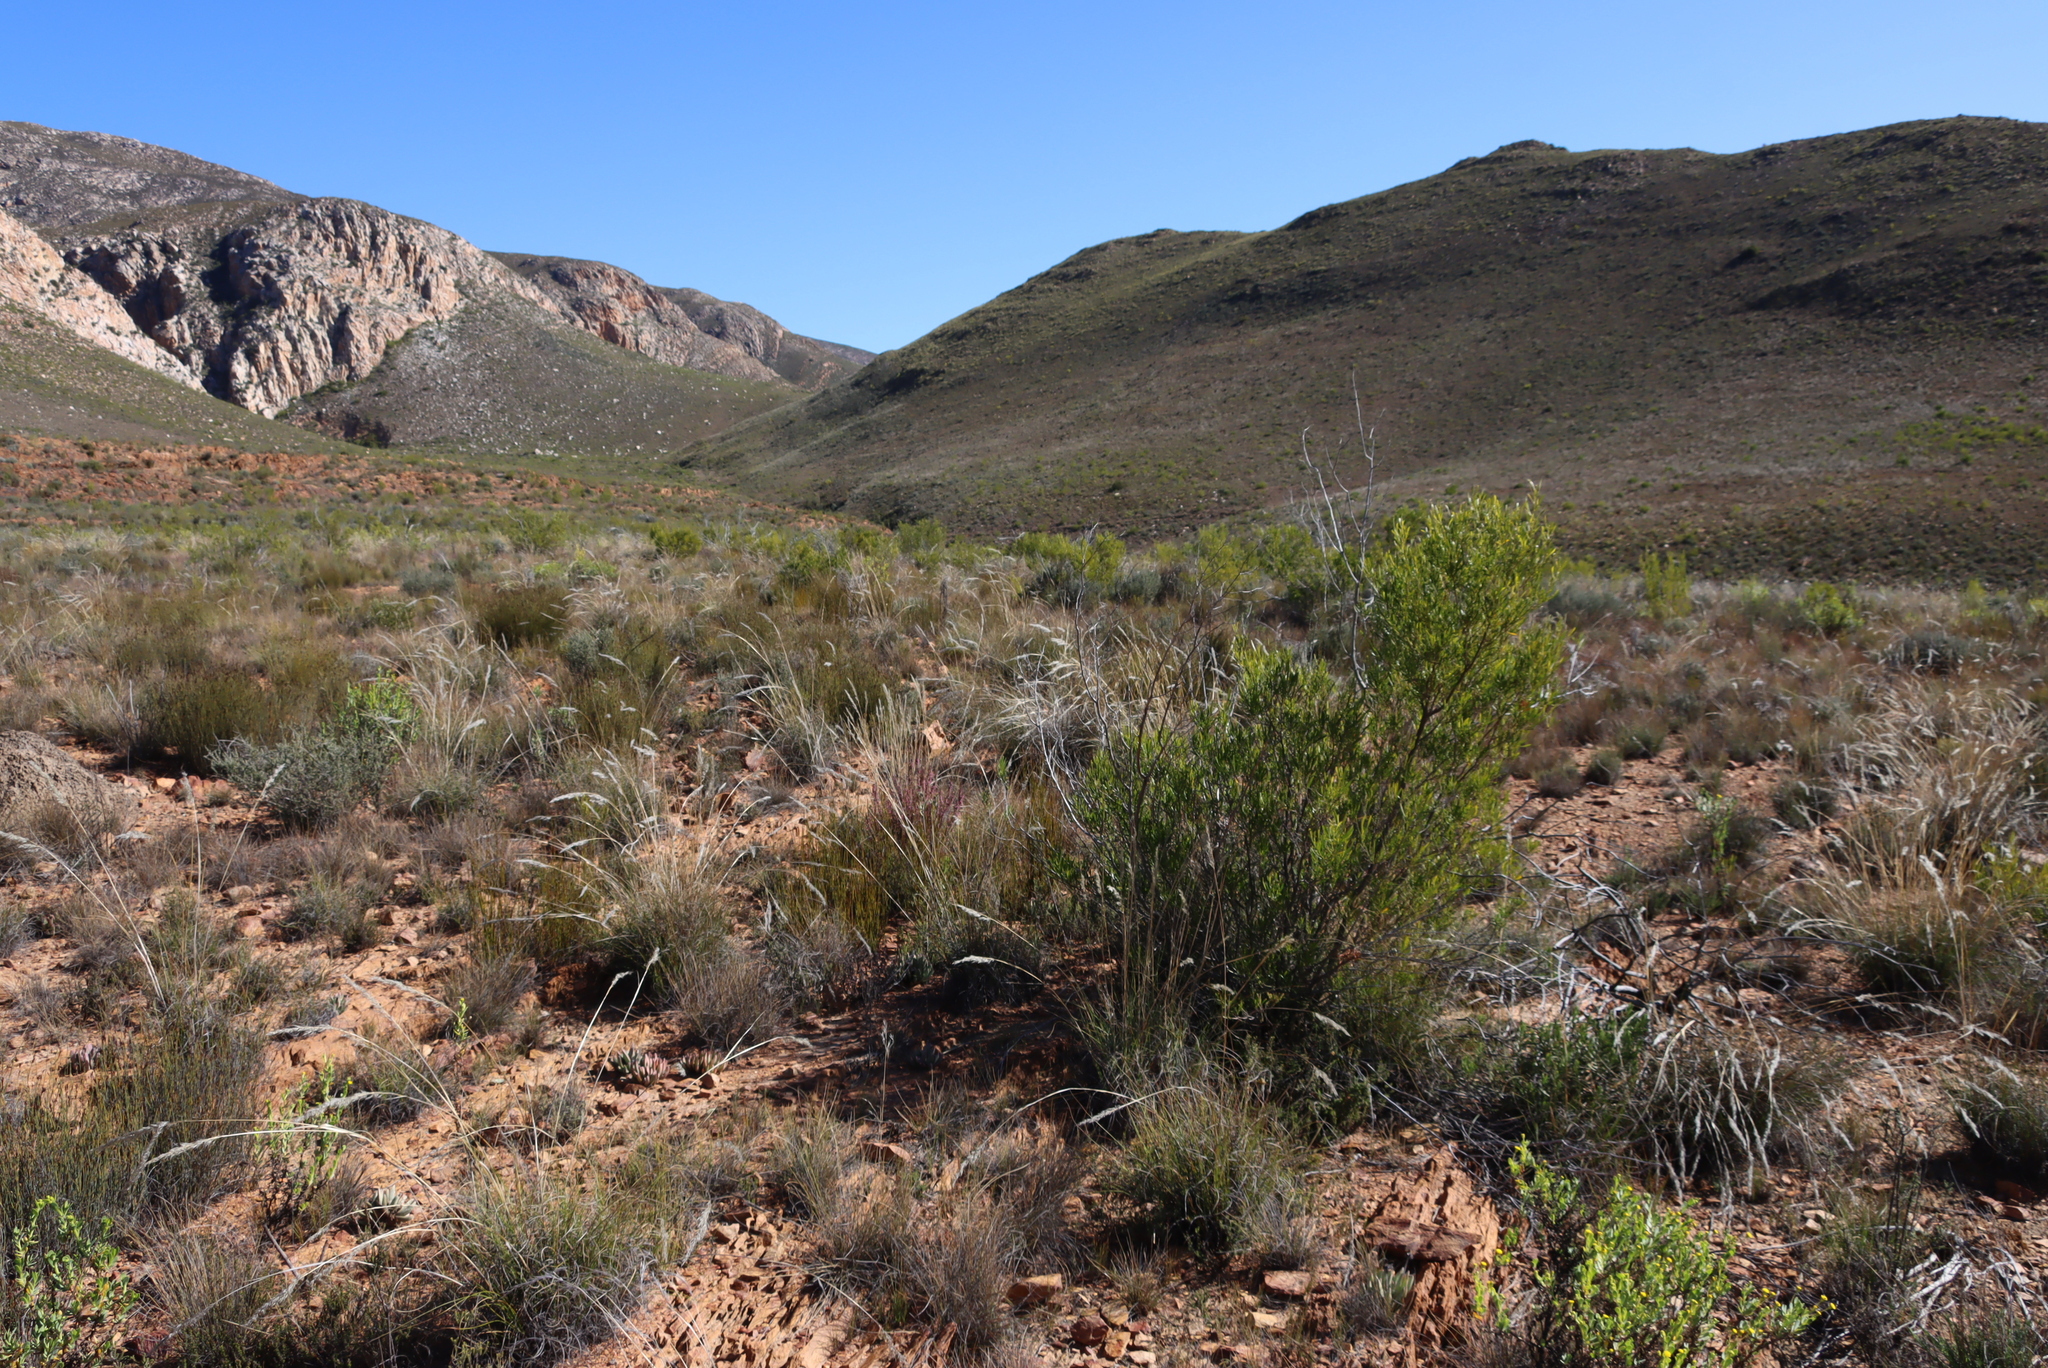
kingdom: Plantae
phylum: Tracheophyta
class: Magnoliopsida
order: Sapindales
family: Sapindaceae
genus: Dodonaea
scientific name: Dodonaea viscosa
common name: Hopbush
